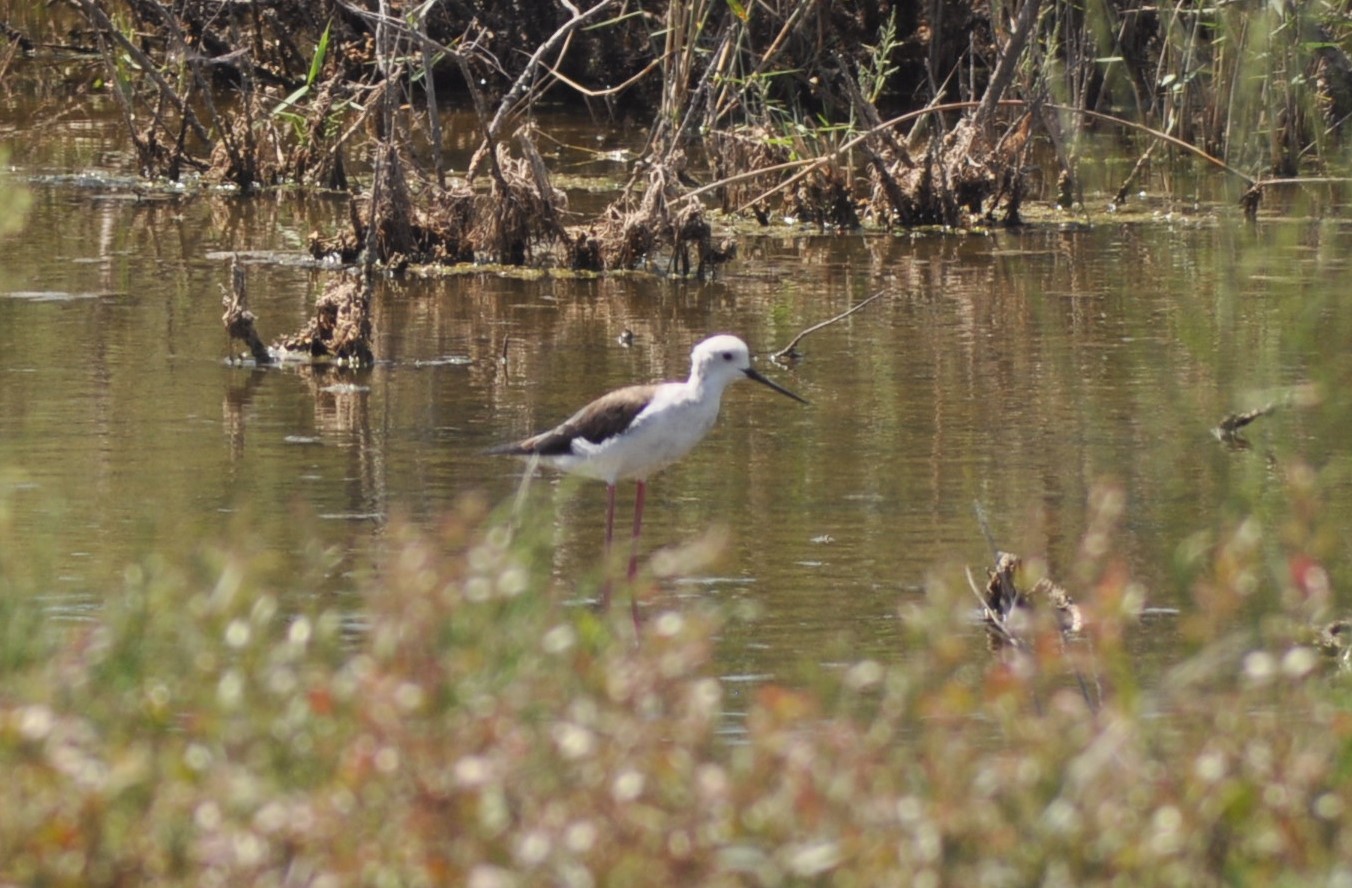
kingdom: Animalia
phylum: Chordata
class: Aves
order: Charadriiformes
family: Recurvirostridae
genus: Himantopus
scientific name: Himantopus himantopus
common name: Black-winged stilt
